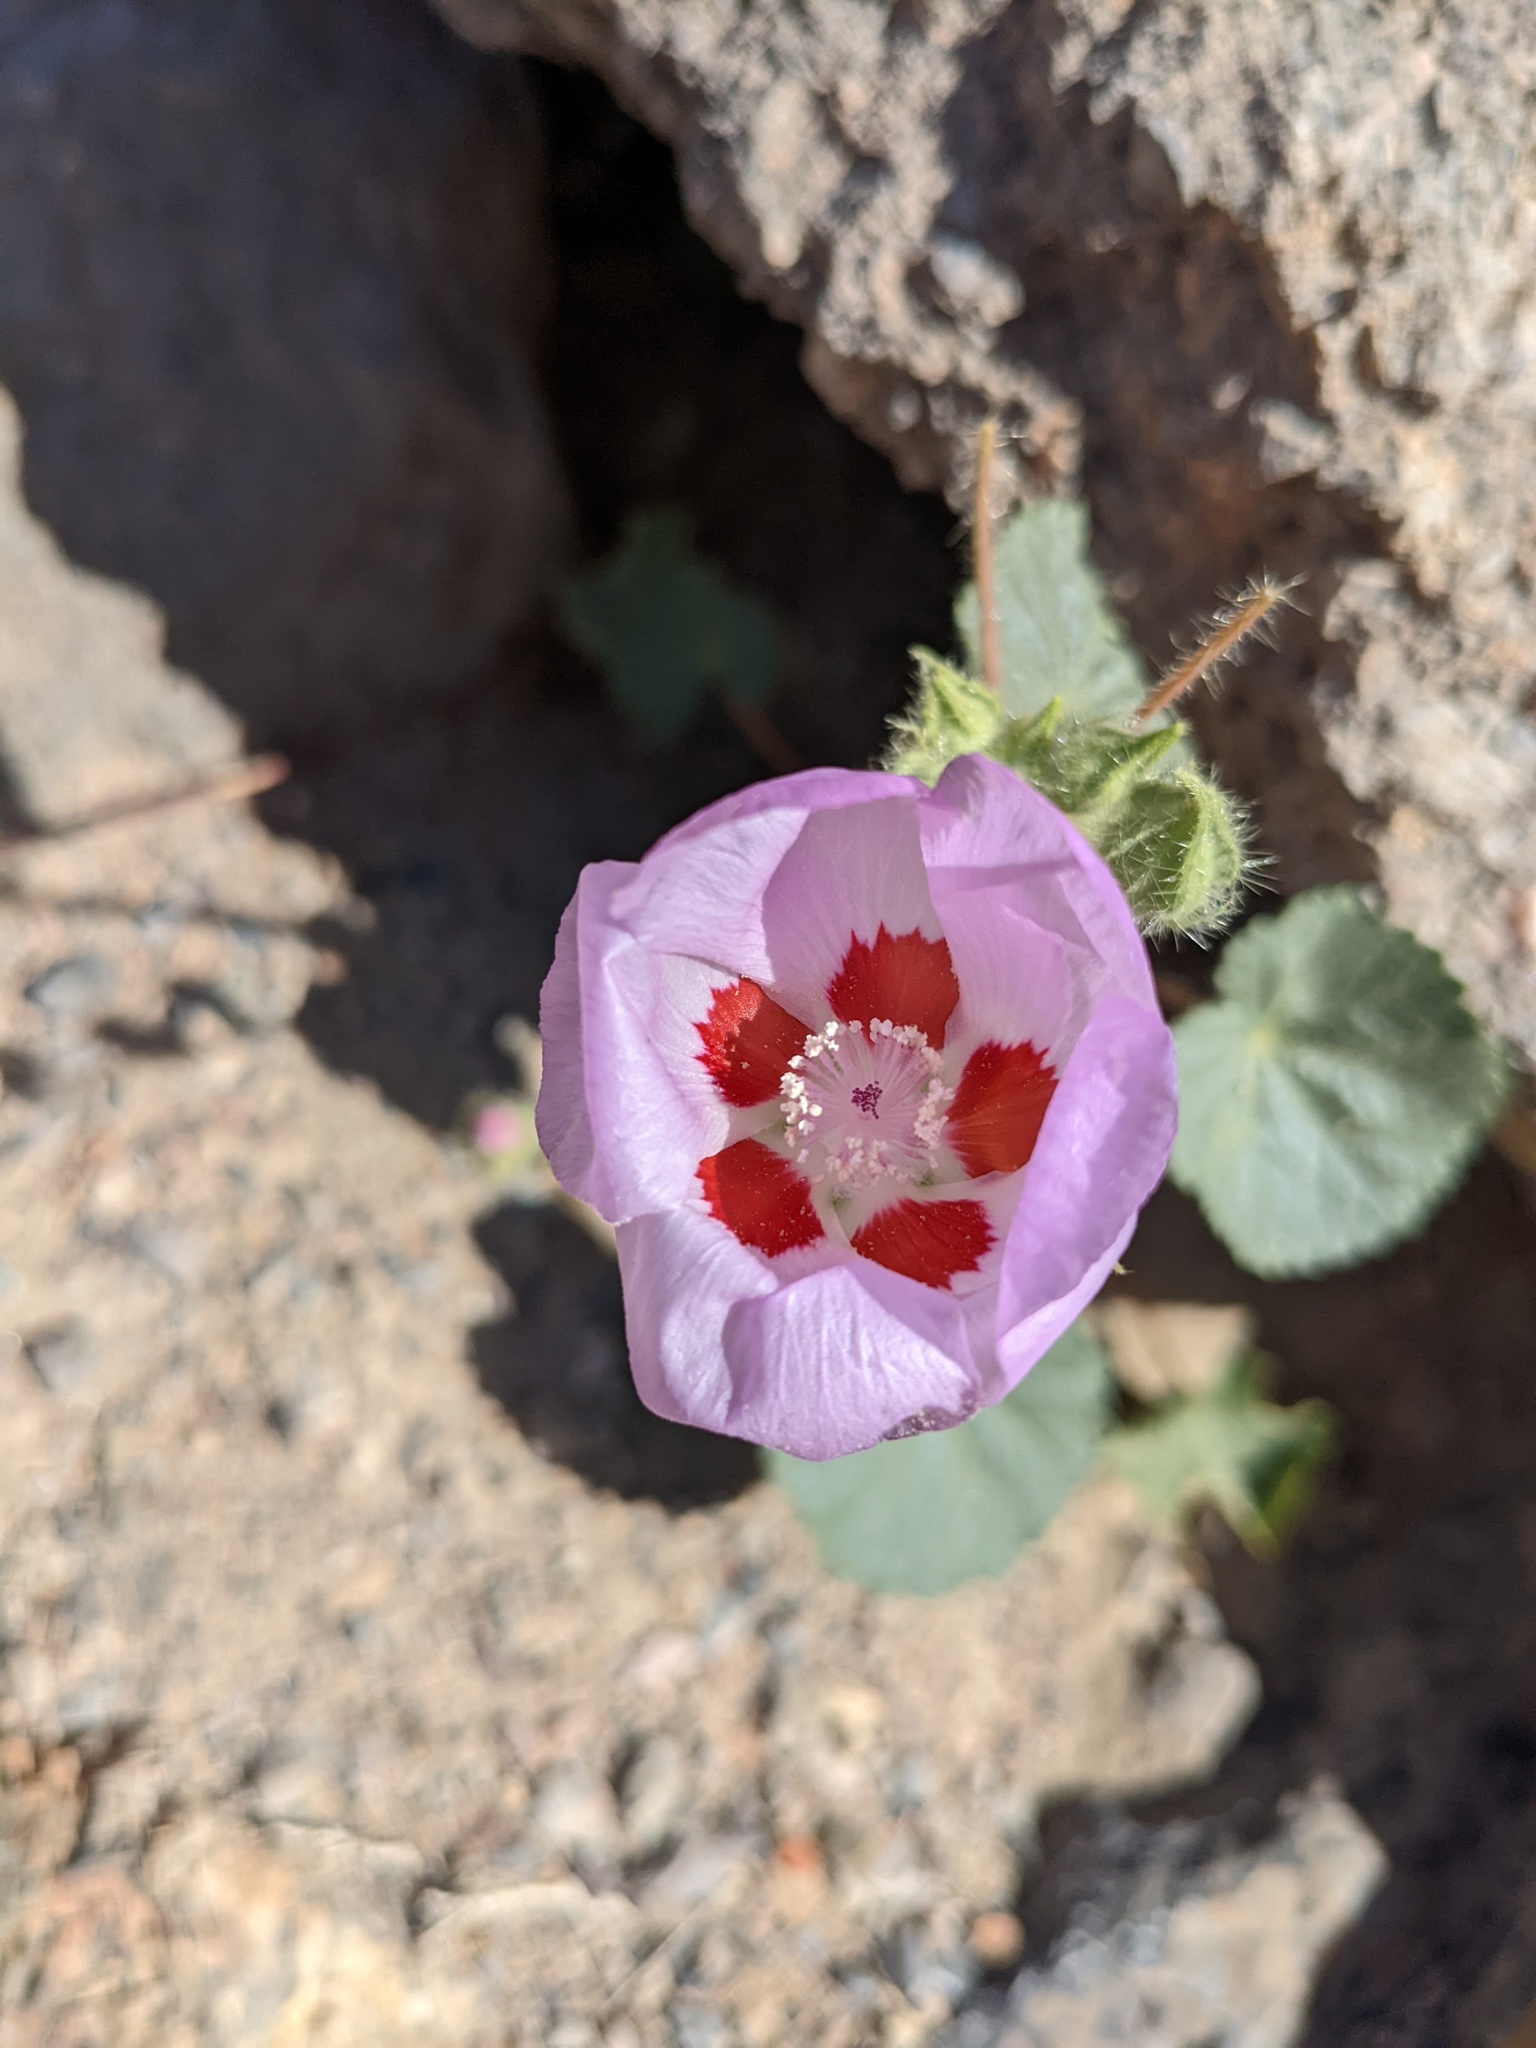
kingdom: Plantae
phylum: Tracheophyta
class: Magnoliopsida
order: Malvales
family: Malvaceae
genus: Eremalche
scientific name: Eremalche rotundifolia
